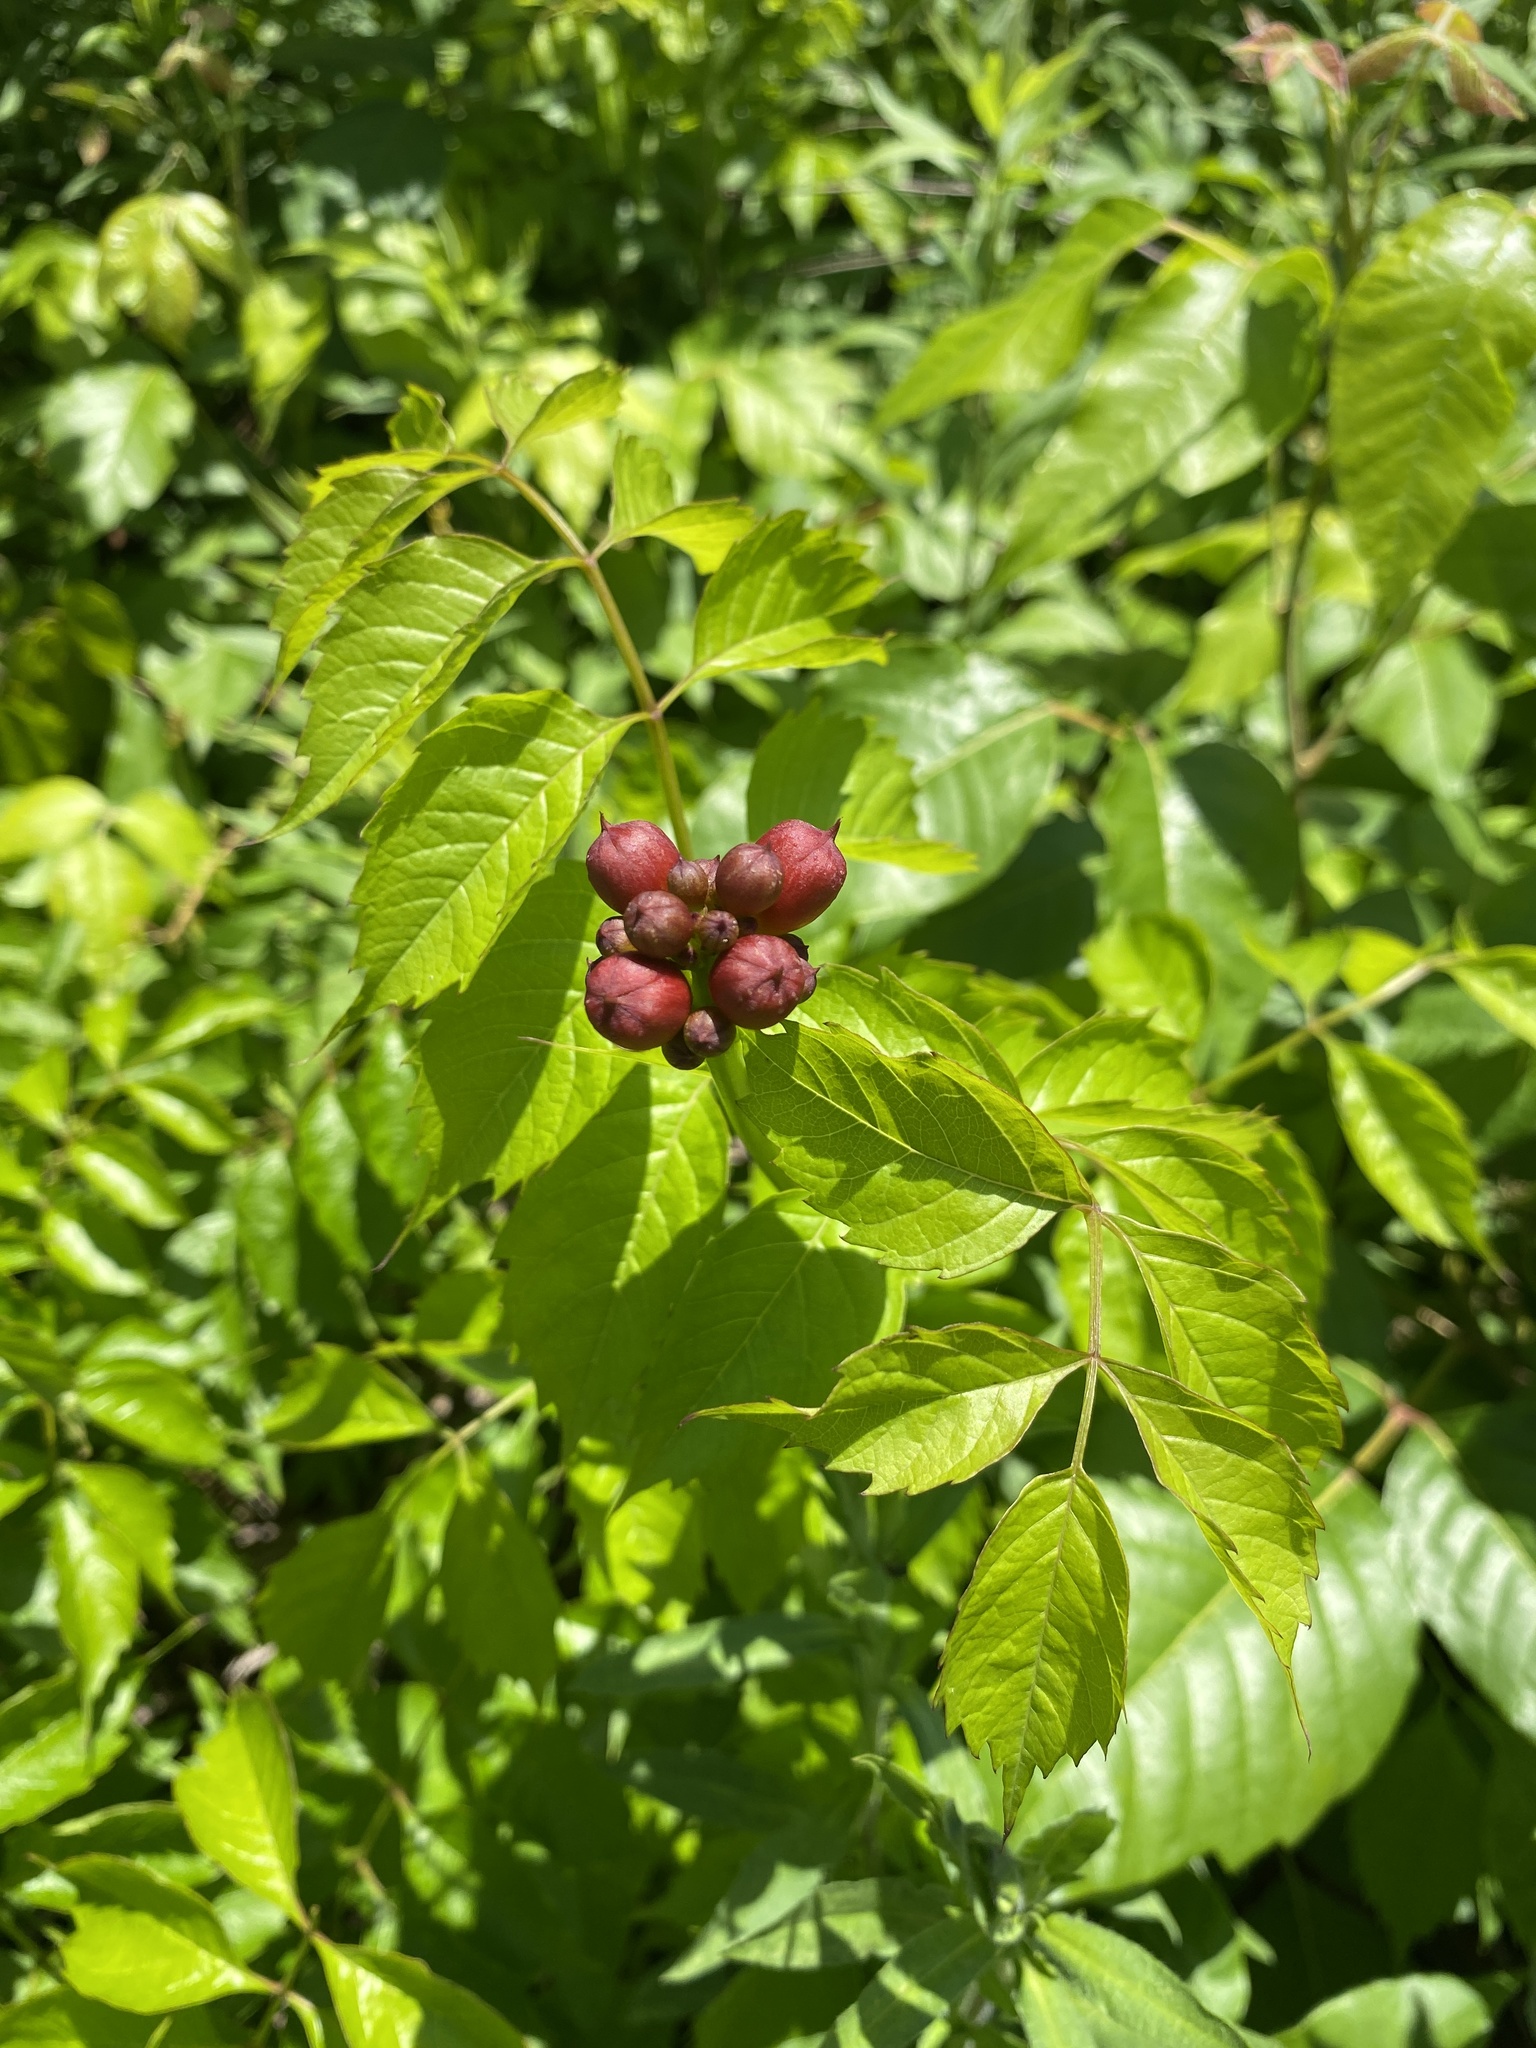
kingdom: Plantae
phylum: Tracheophyta
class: Magnoliopsida
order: Lamiales
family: Bignoniaceae
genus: Campsis
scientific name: Campsis radicans
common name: Trumpet-creeper
